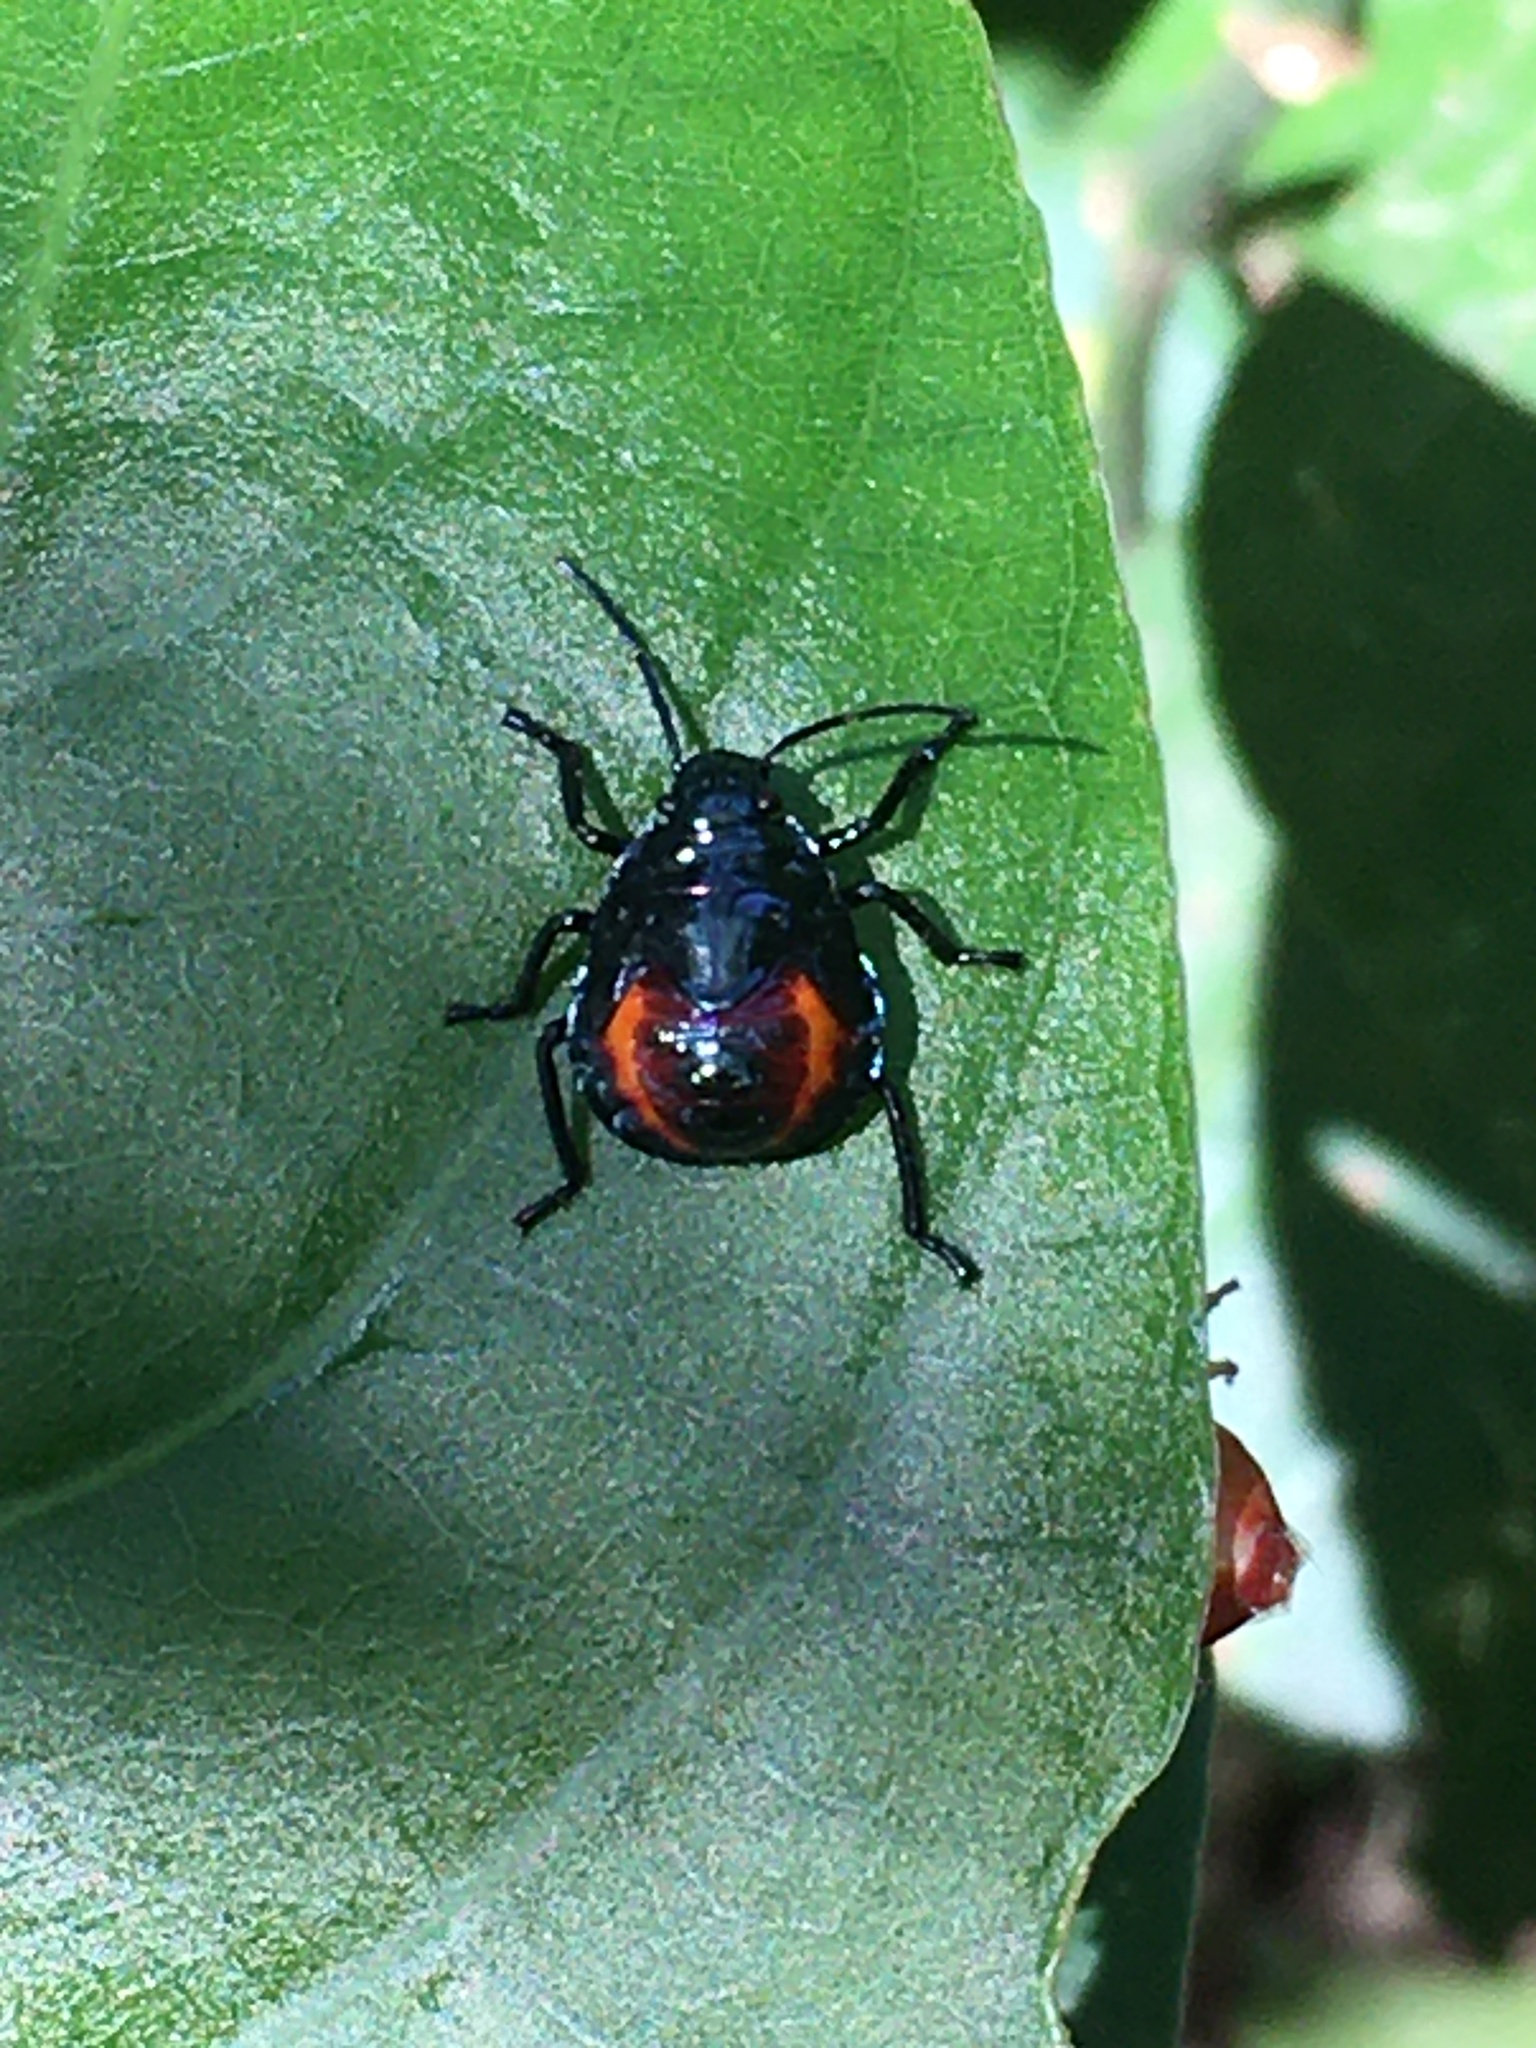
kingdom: Animalia
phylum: Arthropoda
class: Insecta
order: Hemiptera
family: Scutelleridae
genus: Augocoris
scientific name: Augocoris illustris
